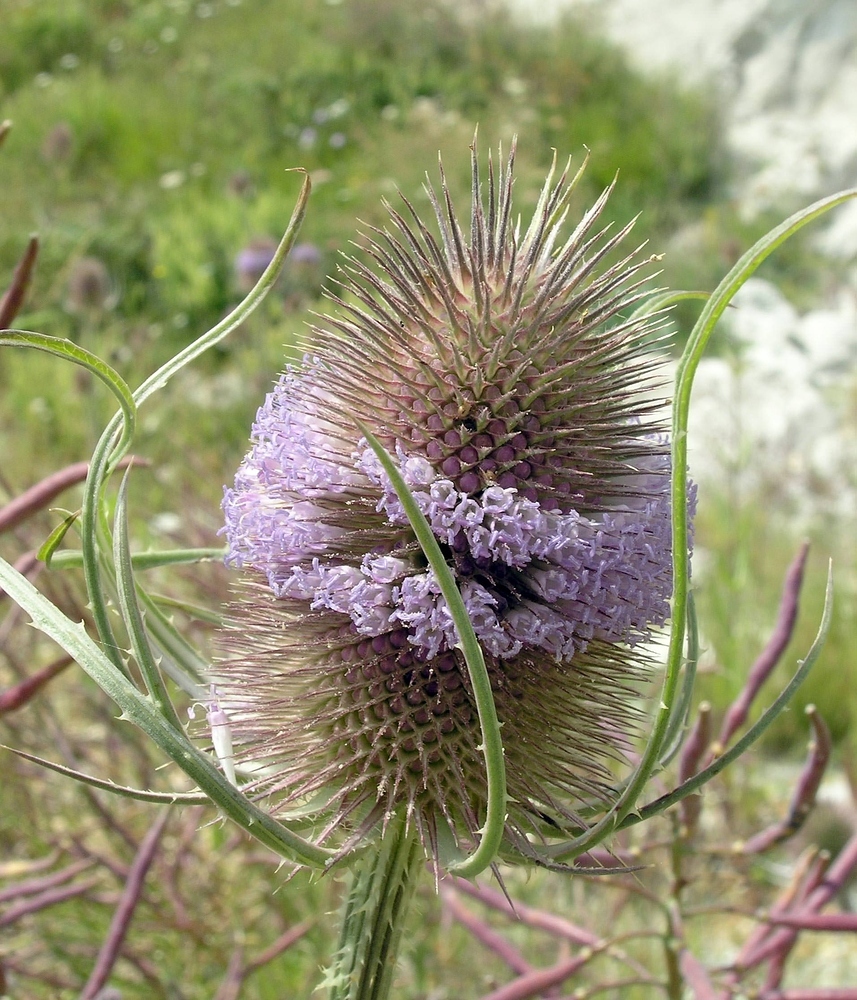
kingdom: Plantae
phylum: Tracheophyta
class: Magnoliopsida
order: Dipsacales
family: Caprifoliaceae
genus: Dipsacus
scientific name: Dipsacus fullonum
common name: Teasel
